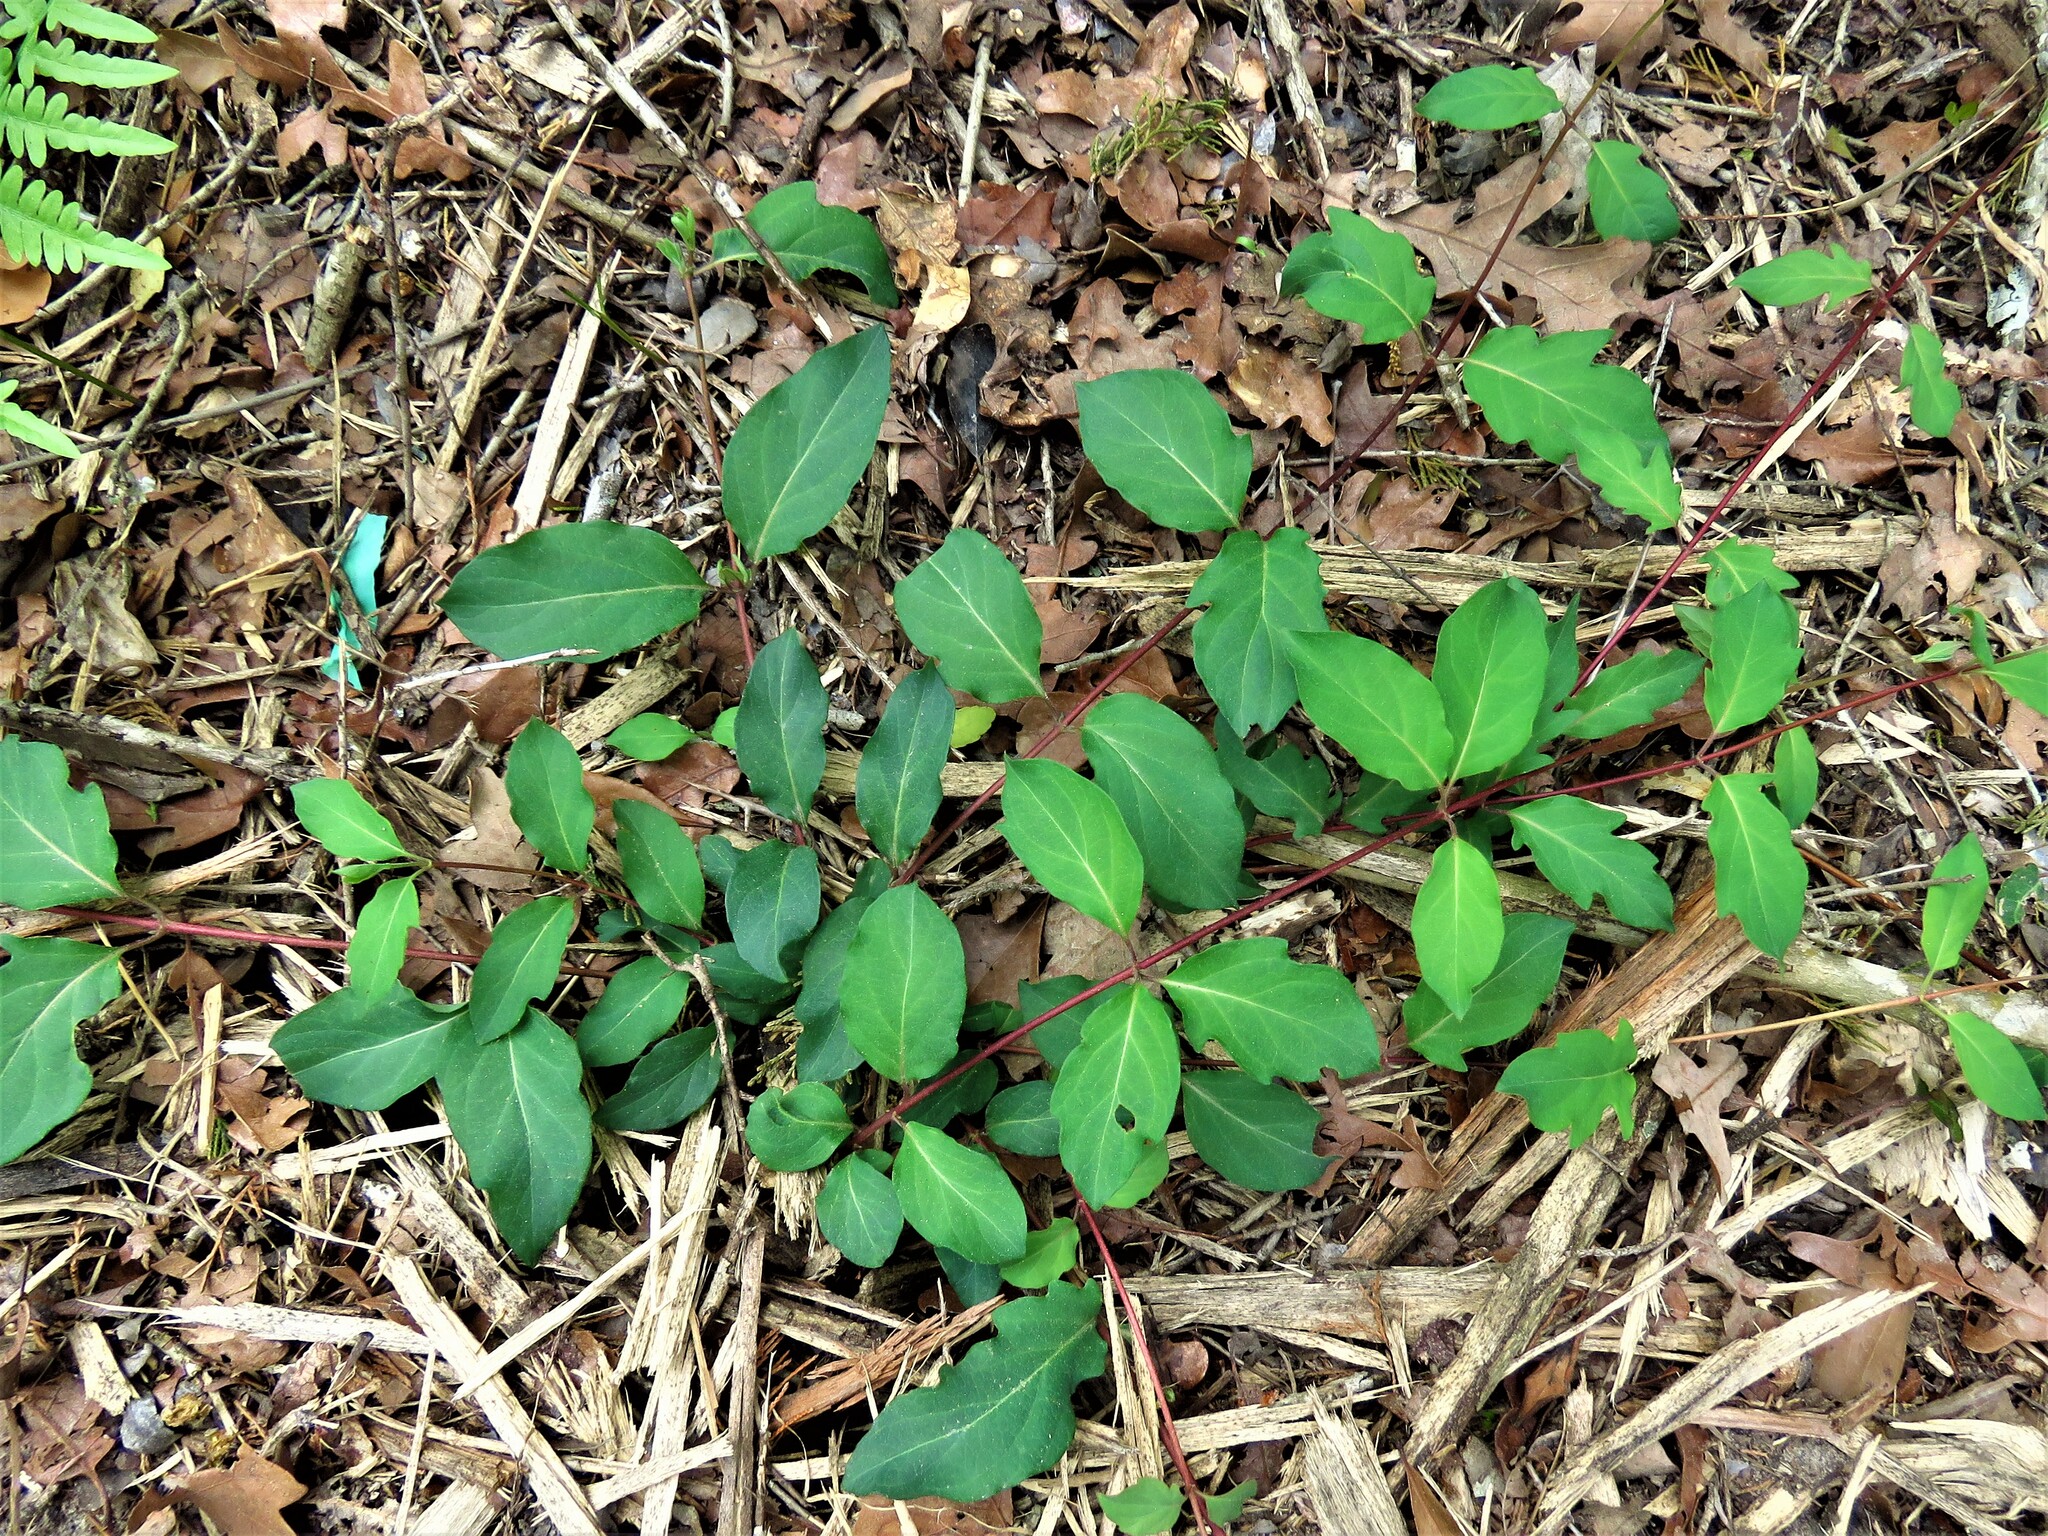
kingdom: Plantae
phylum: Tracheophyta
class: Magnoliopsida
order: Dipsacales
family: Caprifoliaceae
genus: Lonicera
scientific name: Lonicera japonica
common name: Japanese honeysuckle
